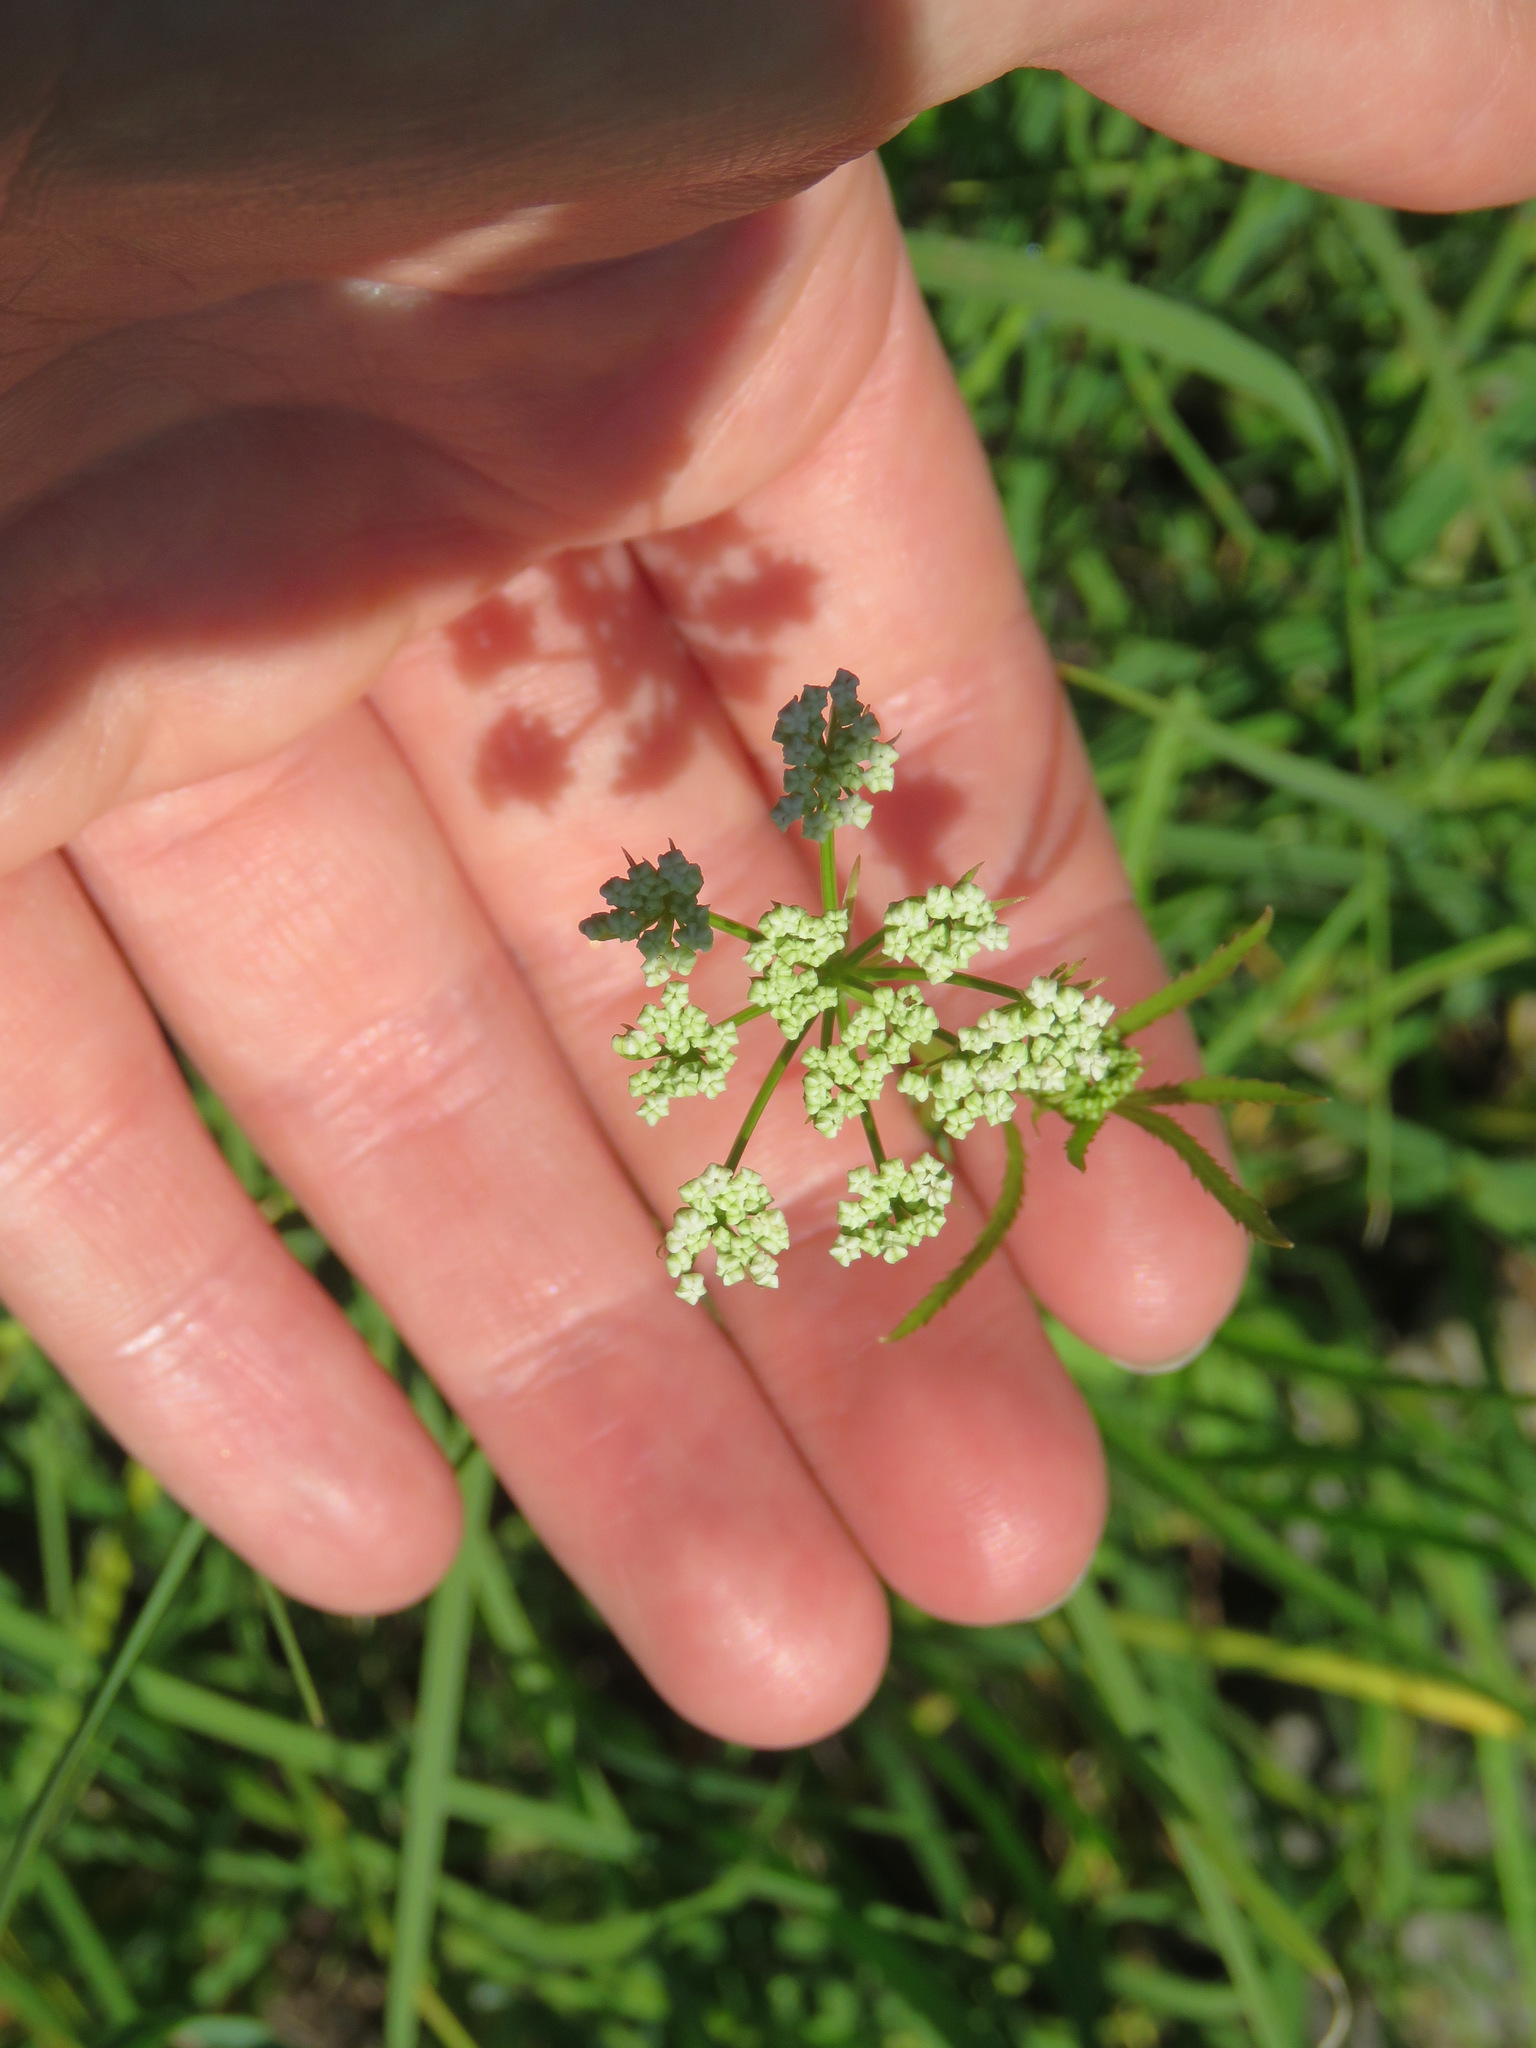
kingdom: Plantae
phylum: Tracheophyta
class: Magnoliopsida
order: Apiales
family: Apiaceae
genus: Sium
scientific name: Sium suave
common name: Hemlock water-parsnip
